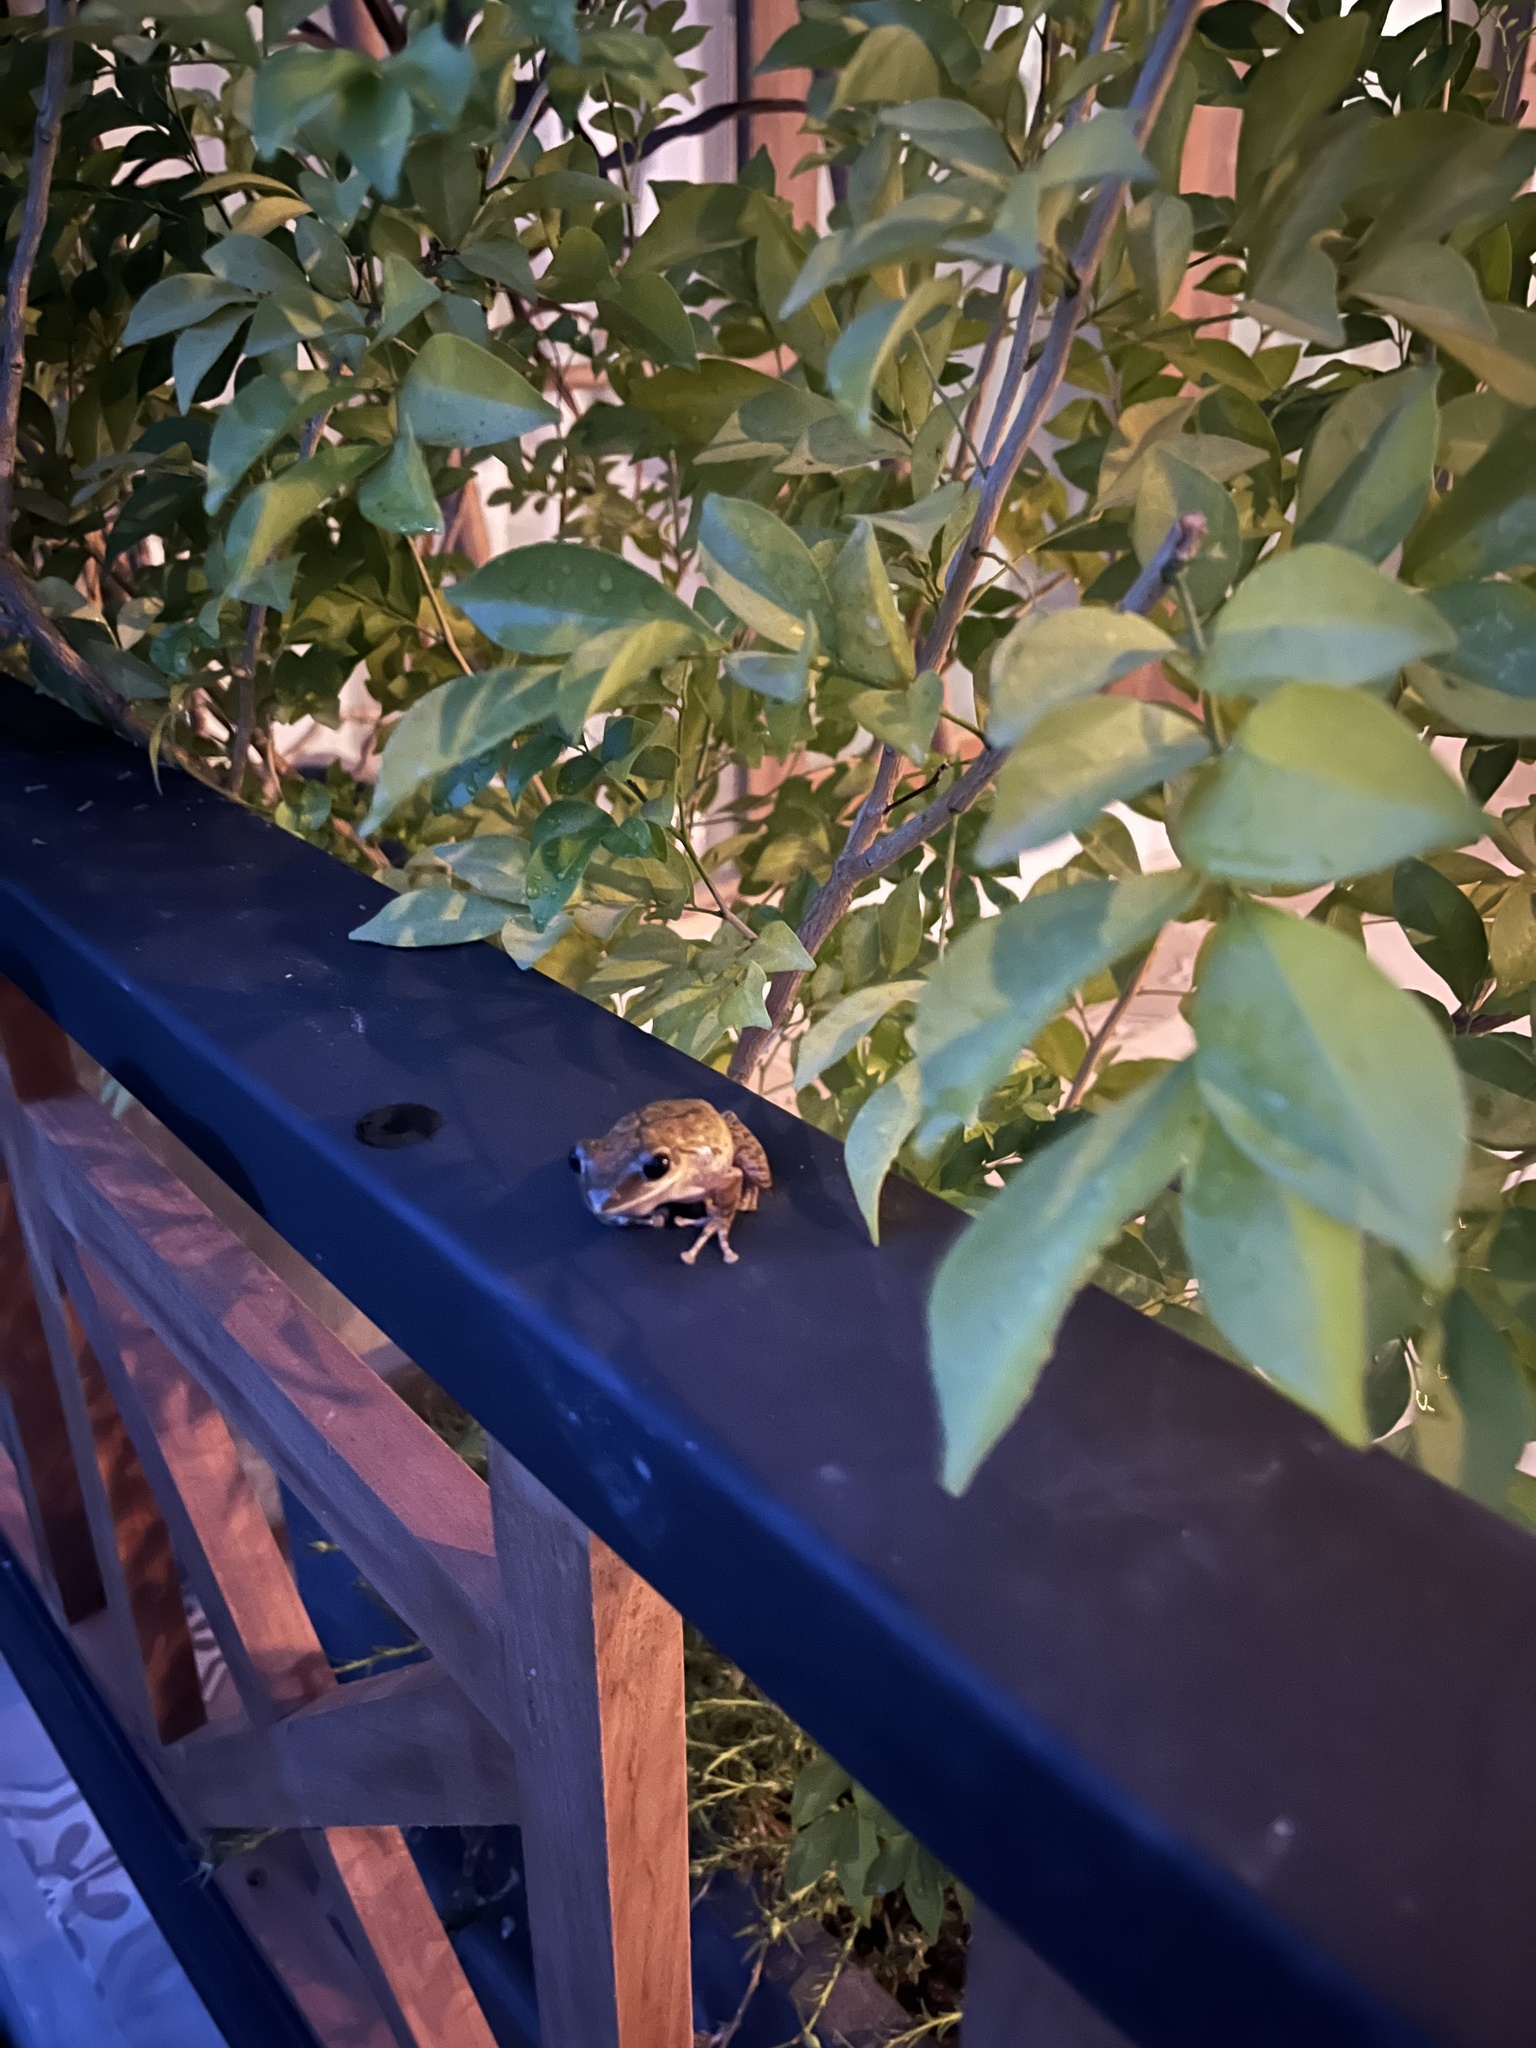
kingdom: Animalia
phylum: Chordata
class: Amphibia
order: Anura
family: Rhacophoridae
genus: Polypedates
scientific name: Polypedates megacephalus
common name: Hong kong whipping frog
